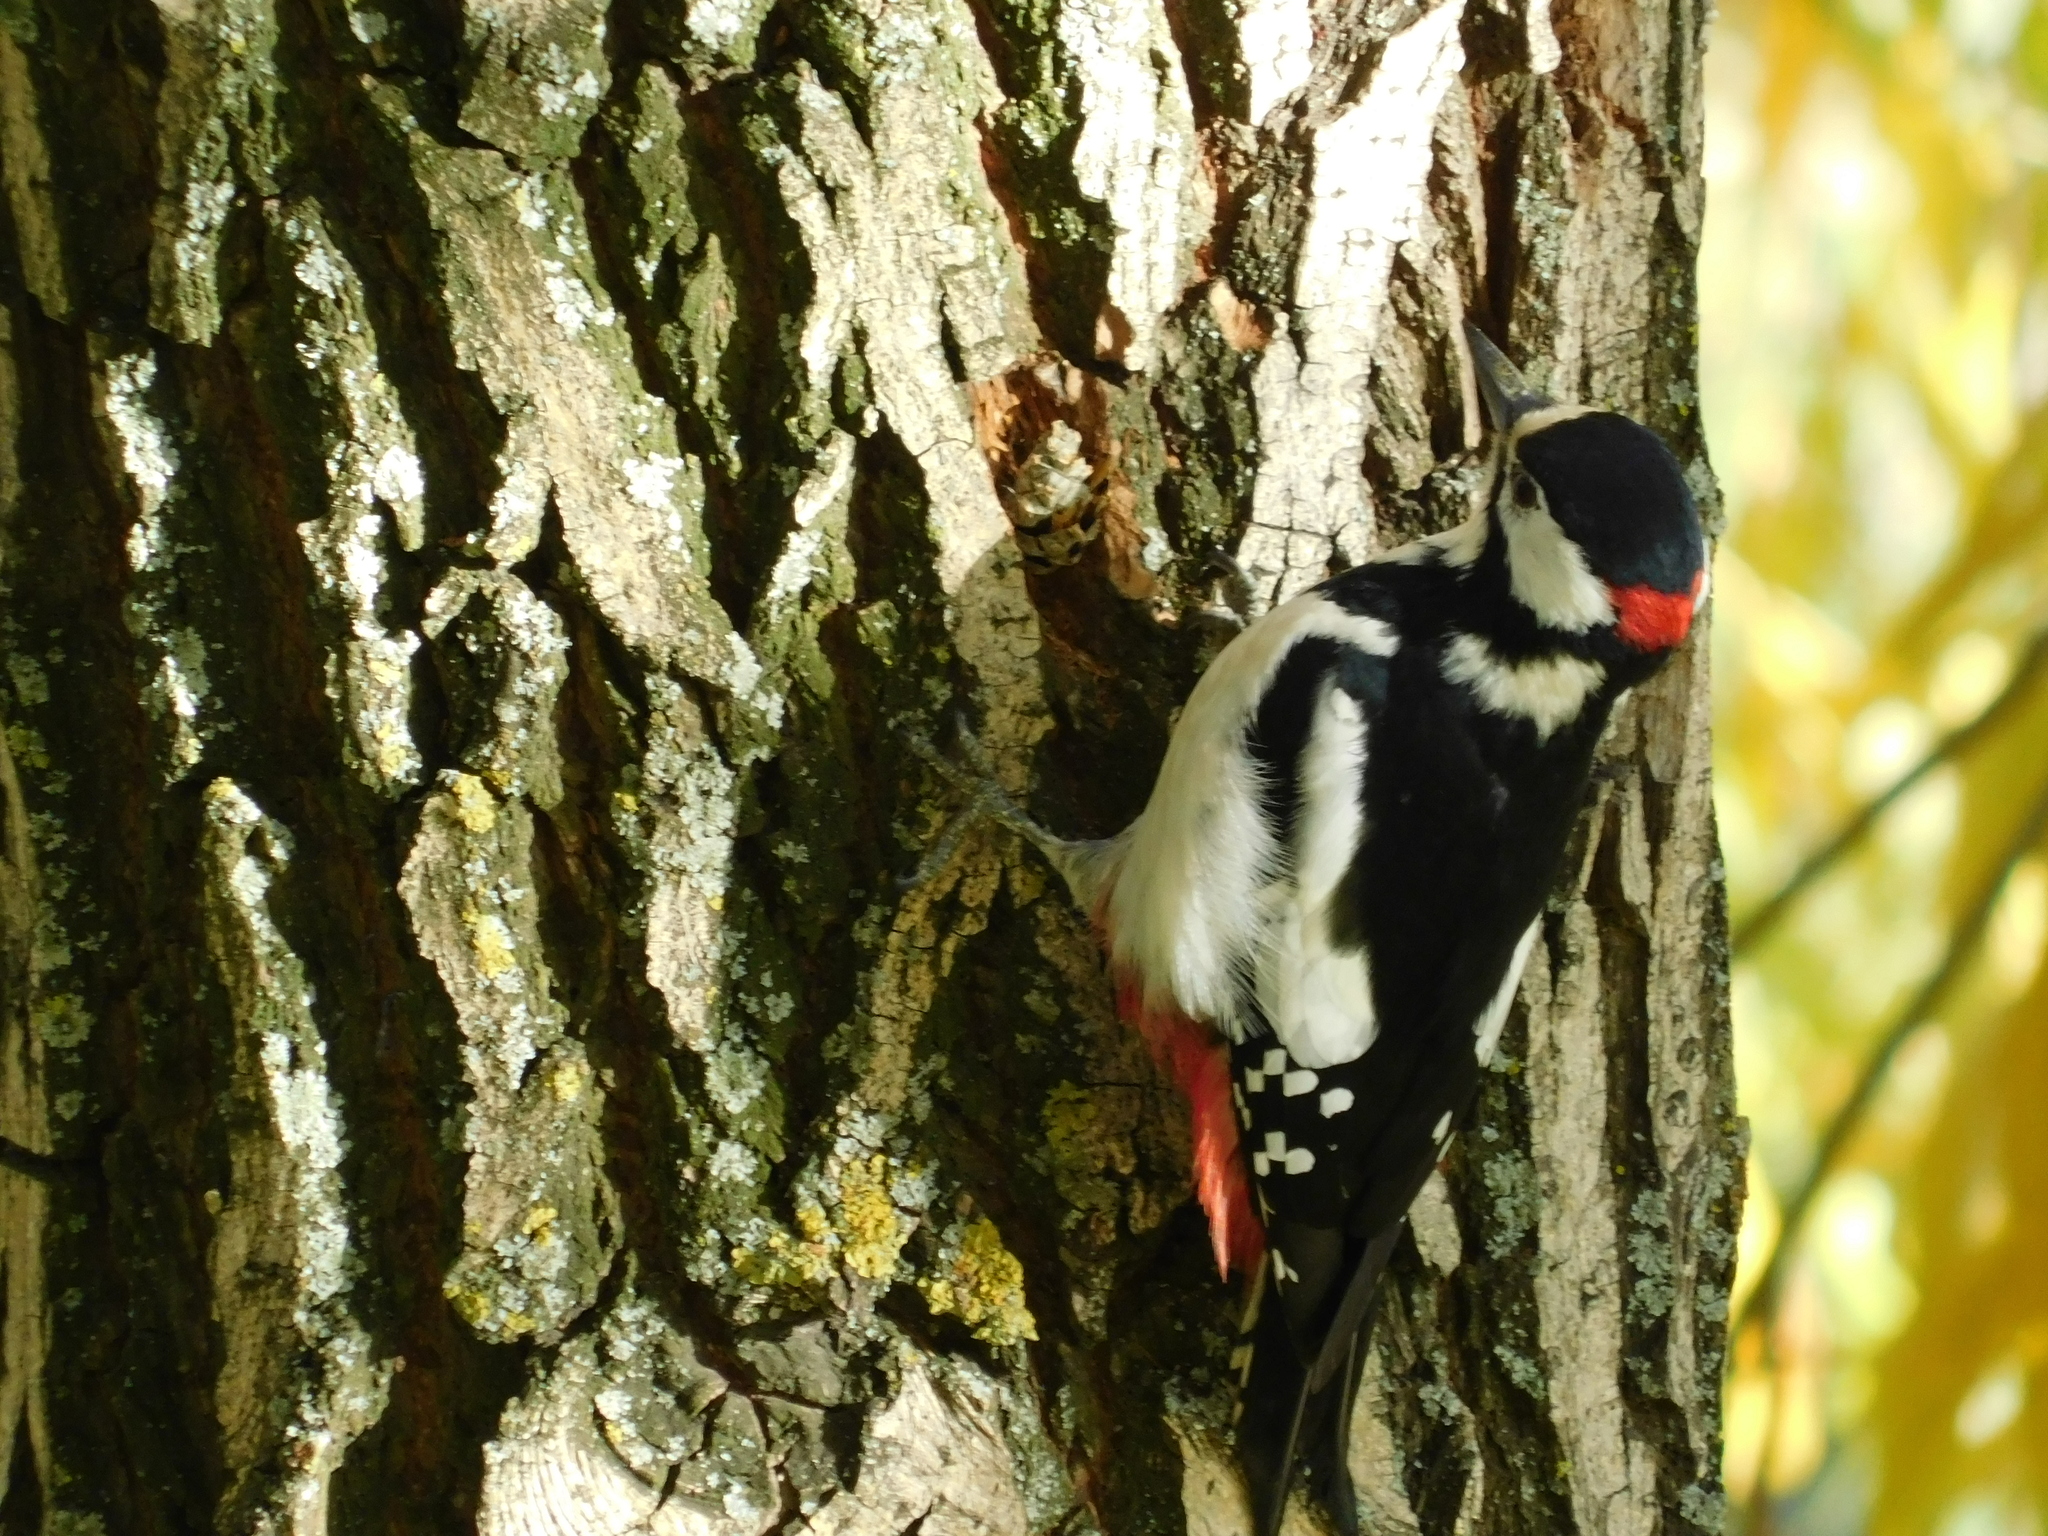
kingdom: Animalia
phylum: Chordata
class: Aves
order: Piciformes
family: Picidae
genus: Dendrocopos
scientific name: Dendrocopos major
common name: Great spotted woodpecker
